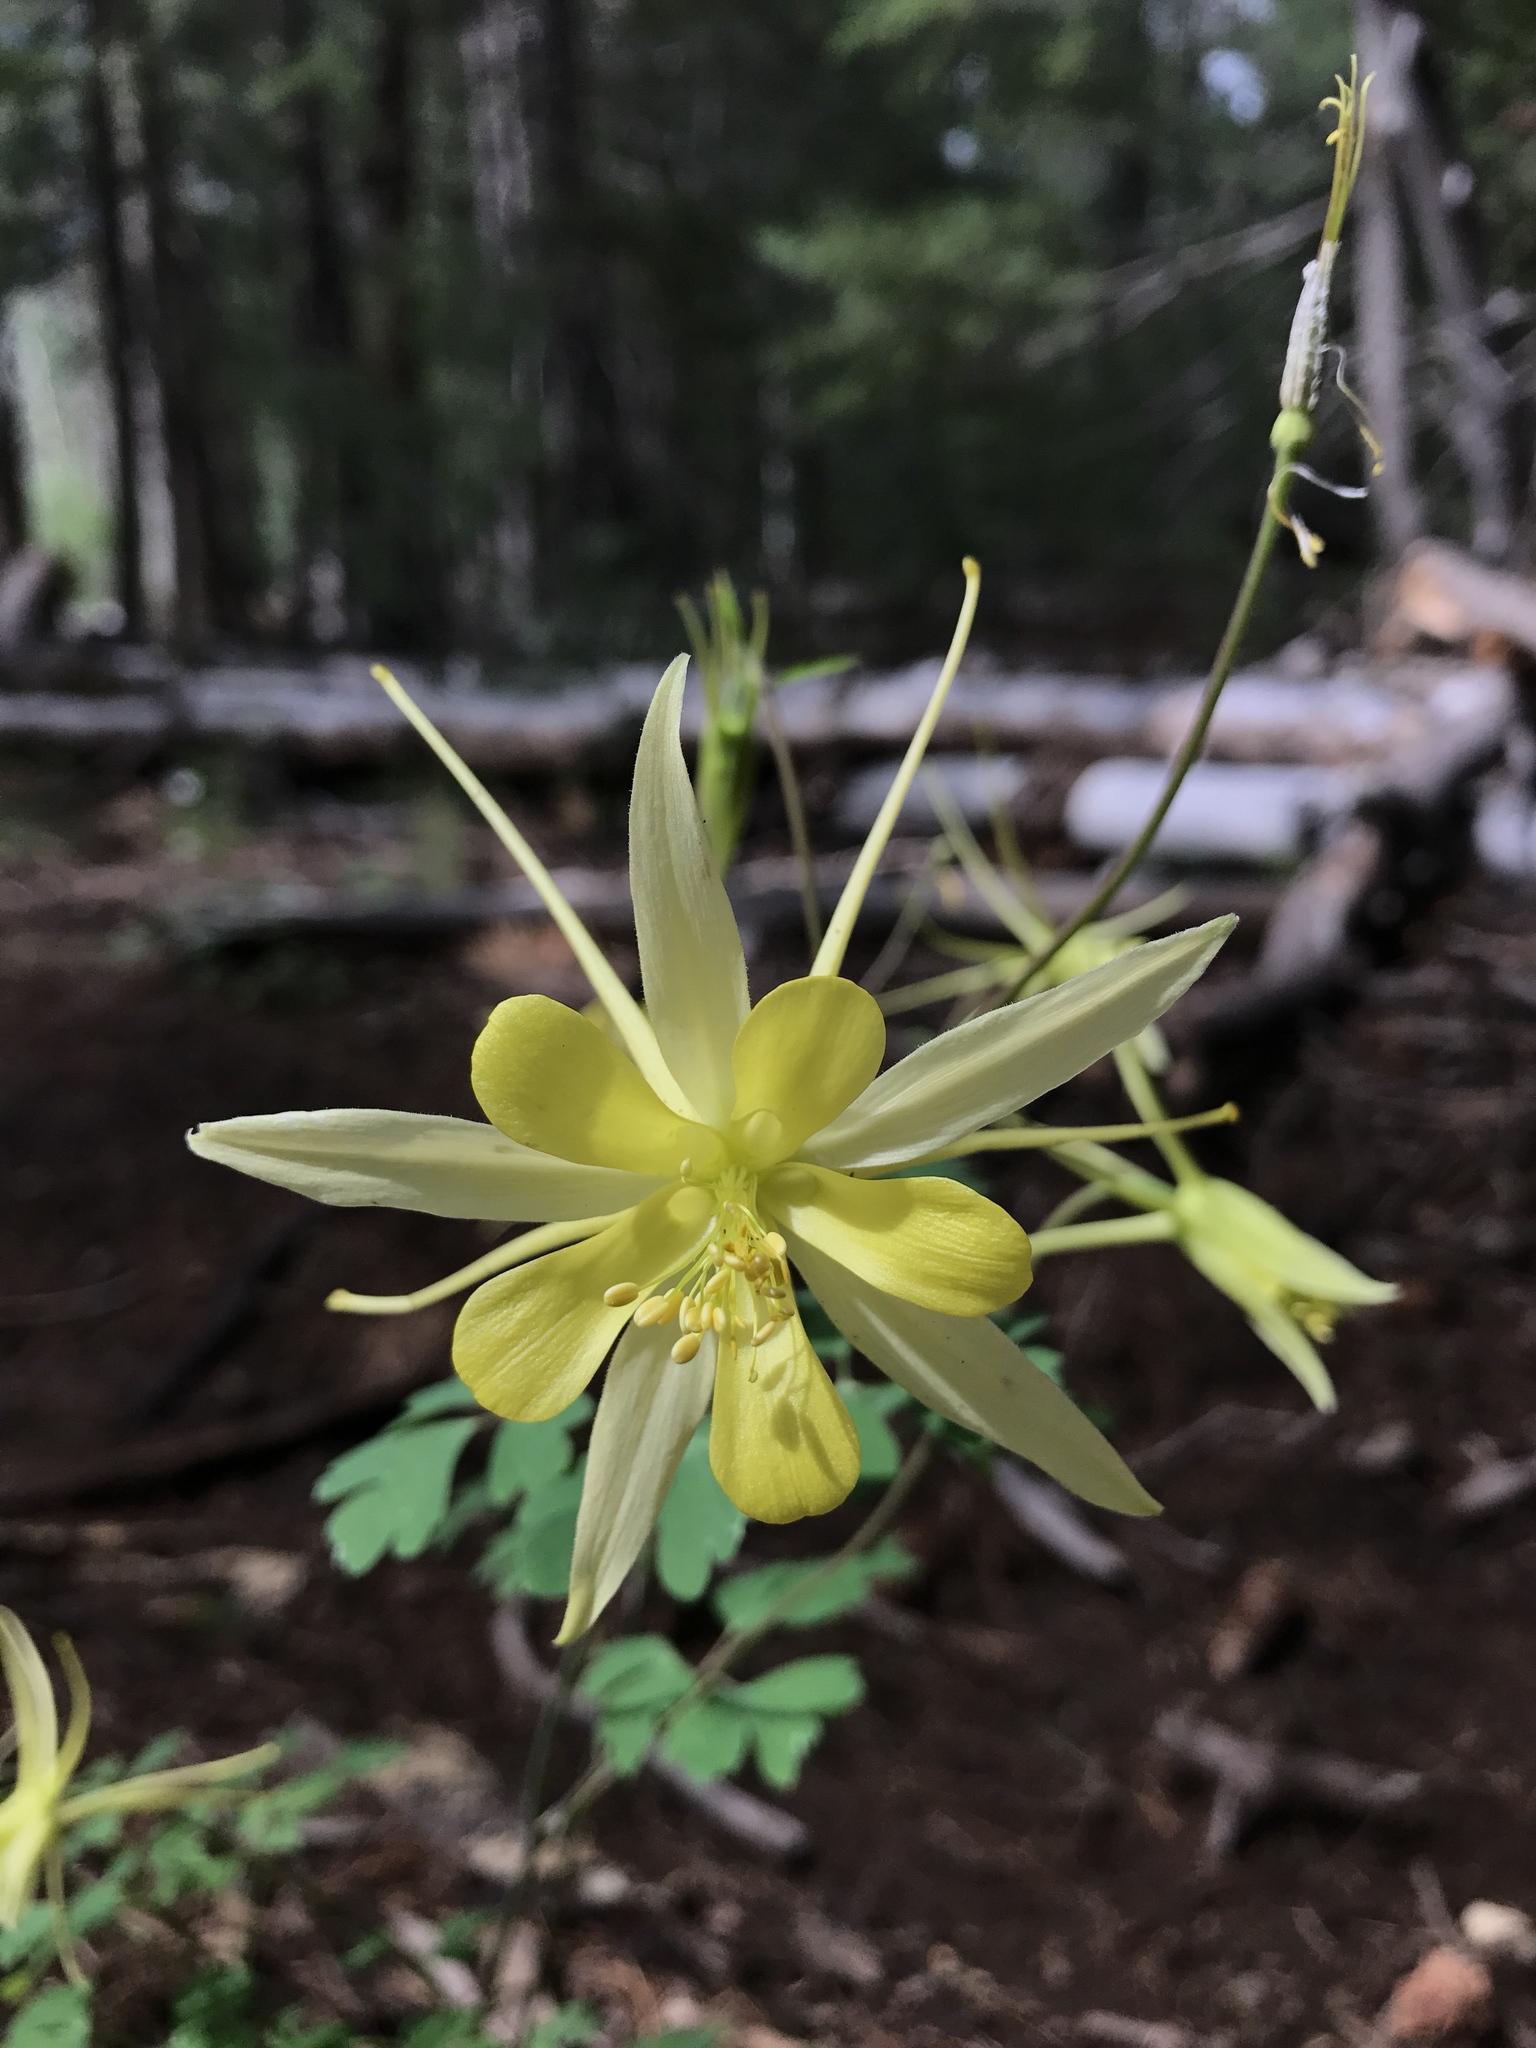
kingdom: Plantae
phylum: Tracheophyta
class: Magnoliopsida
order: Ranunculales
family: Ranunculaceae
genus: Aquilegia
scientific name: Aquilegia chrysantha
